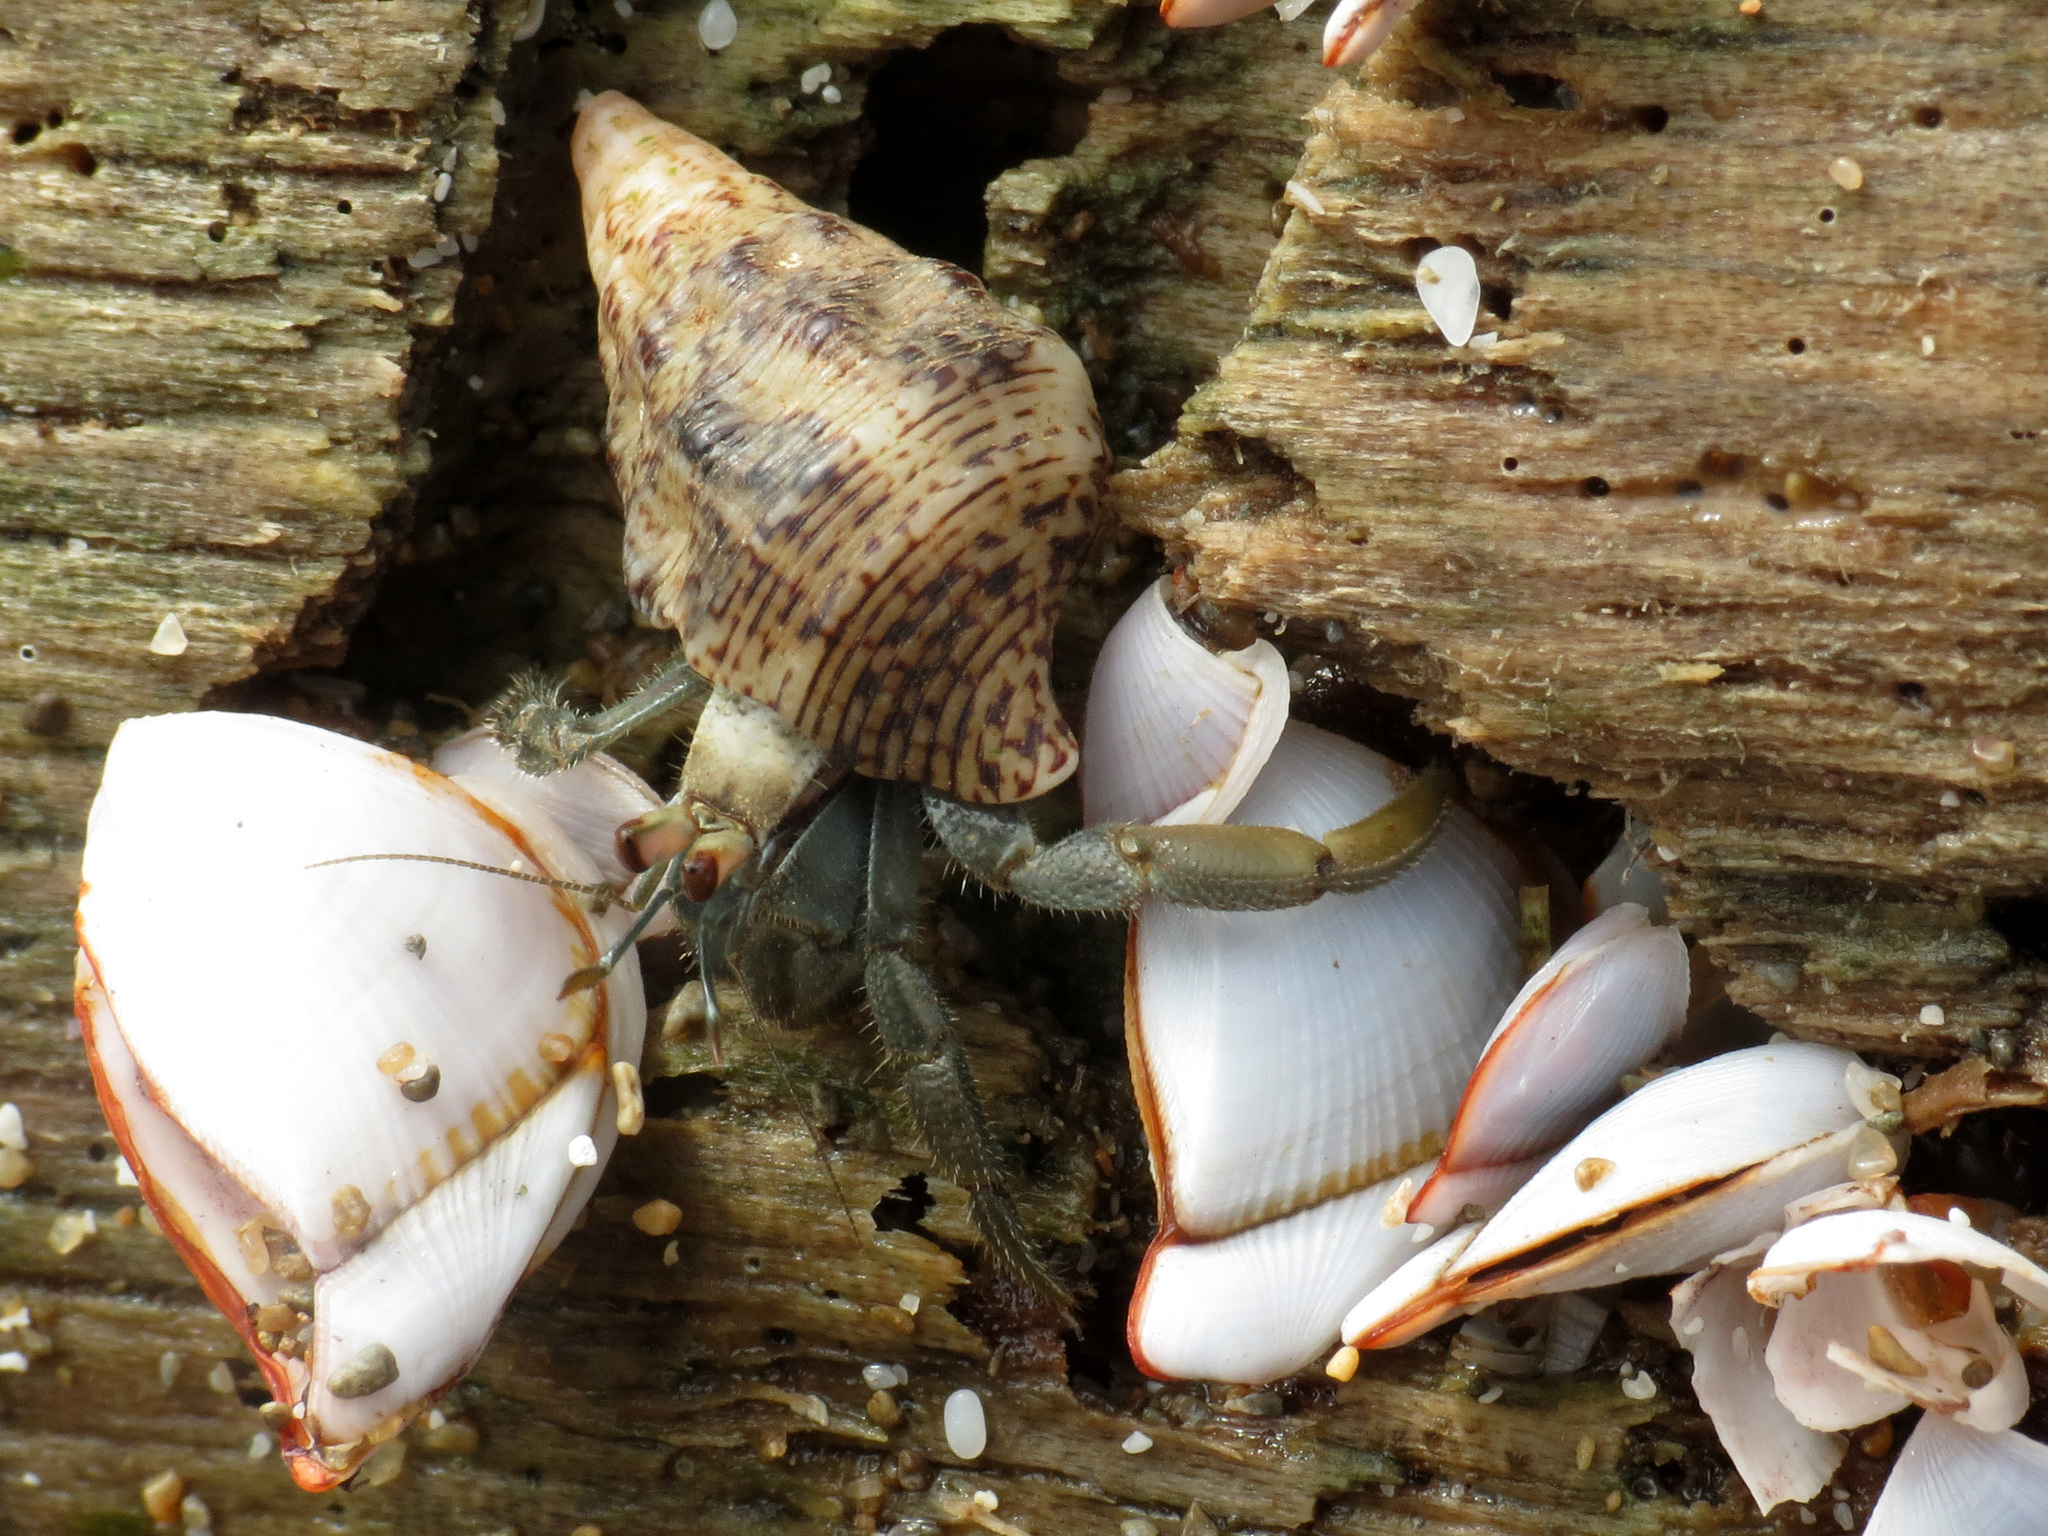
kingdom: Animalia
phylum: Arthropoda
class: Malacostraca
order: Decapoda
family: Coenobitidae
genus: Coenobita
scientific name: Coenobita compressus
